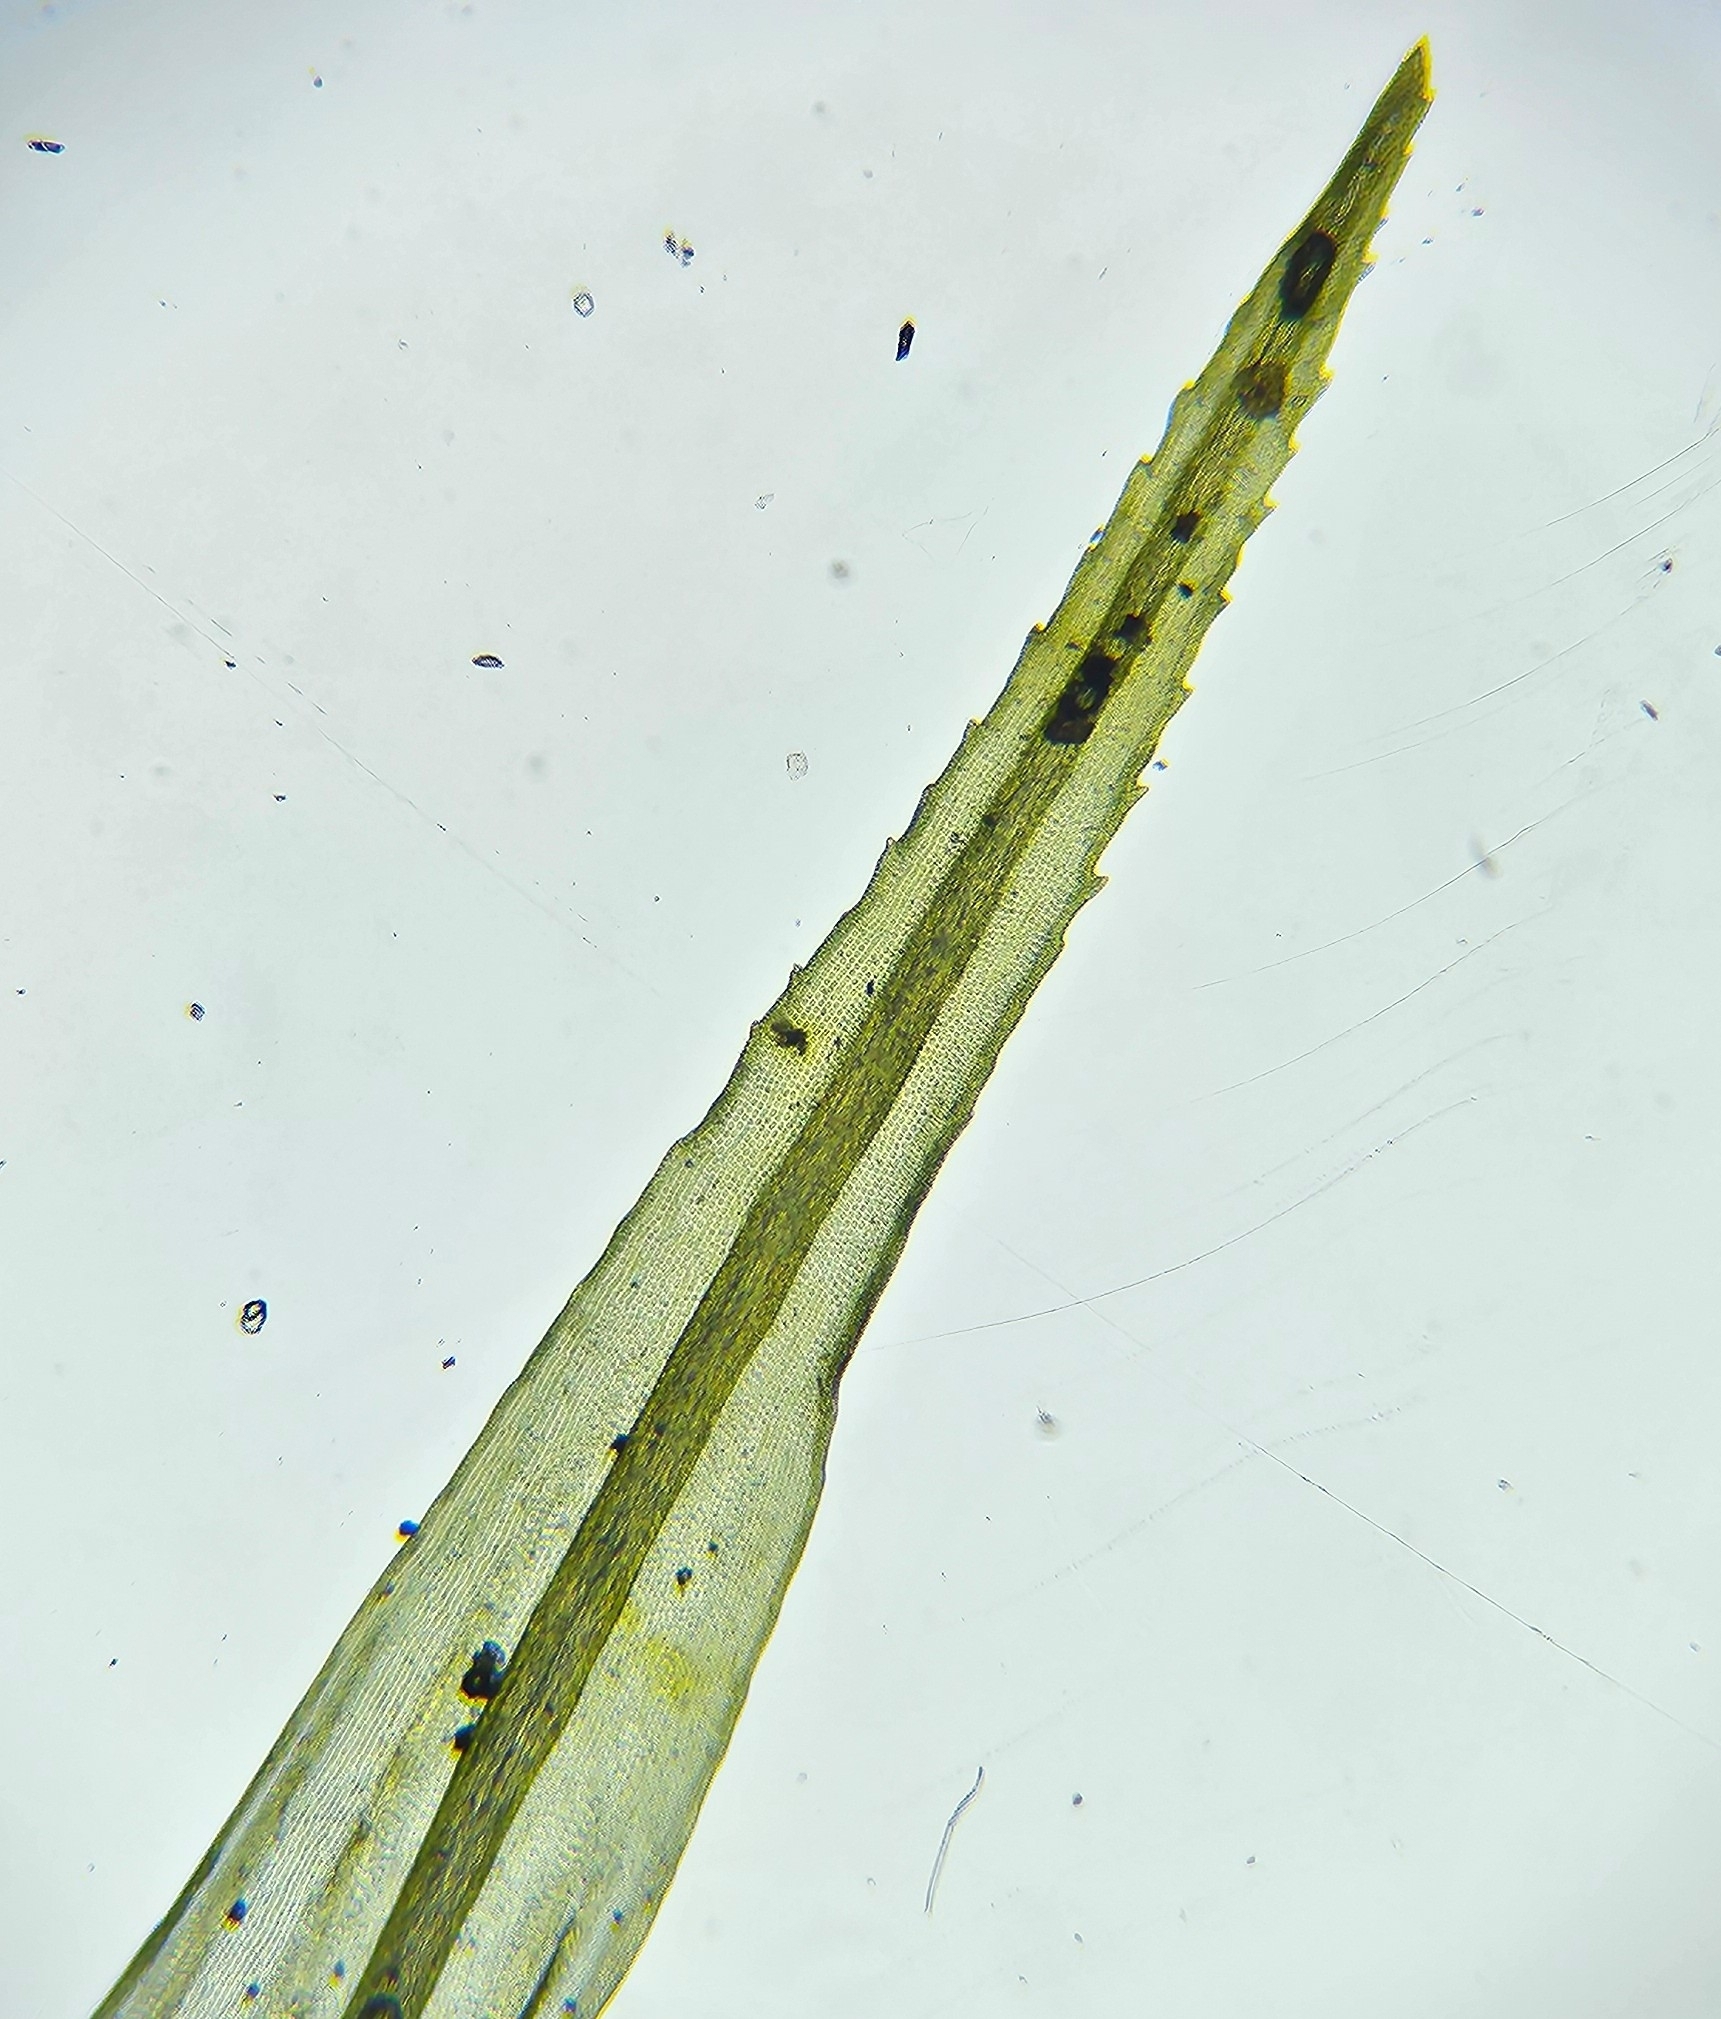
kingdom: Plantae
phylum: Bryophyta
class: Bryopsida
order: Grimmiales
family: Ptychomitriaceae
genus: Ptychomitrium
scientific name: Ptychomitrium polyphyllum
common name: Greater pincushion
